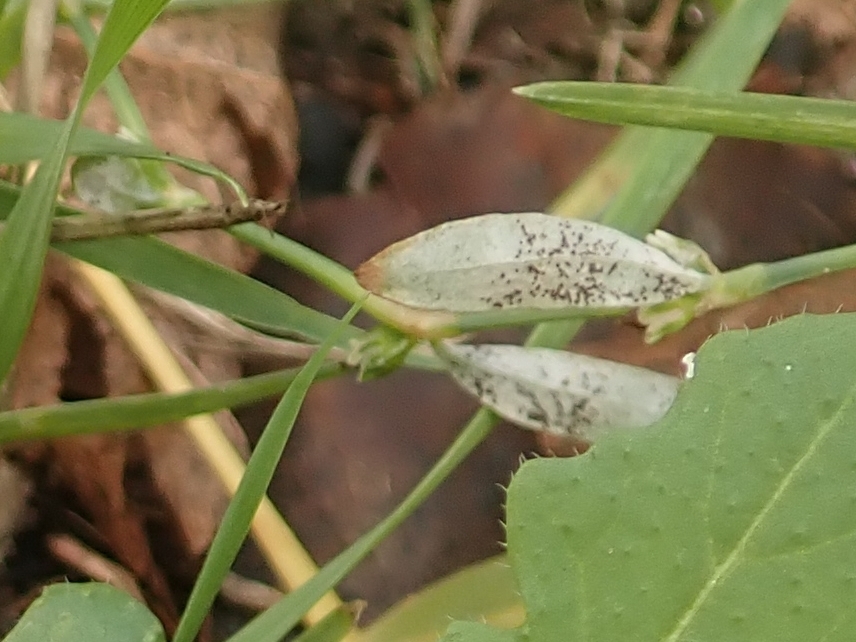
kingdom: Fungi
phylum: Ascomycota
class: Leotiomycetes
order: Helotiales
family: Erysiphaceae
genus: Erysiphe
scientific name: Erysiphe polygoni
